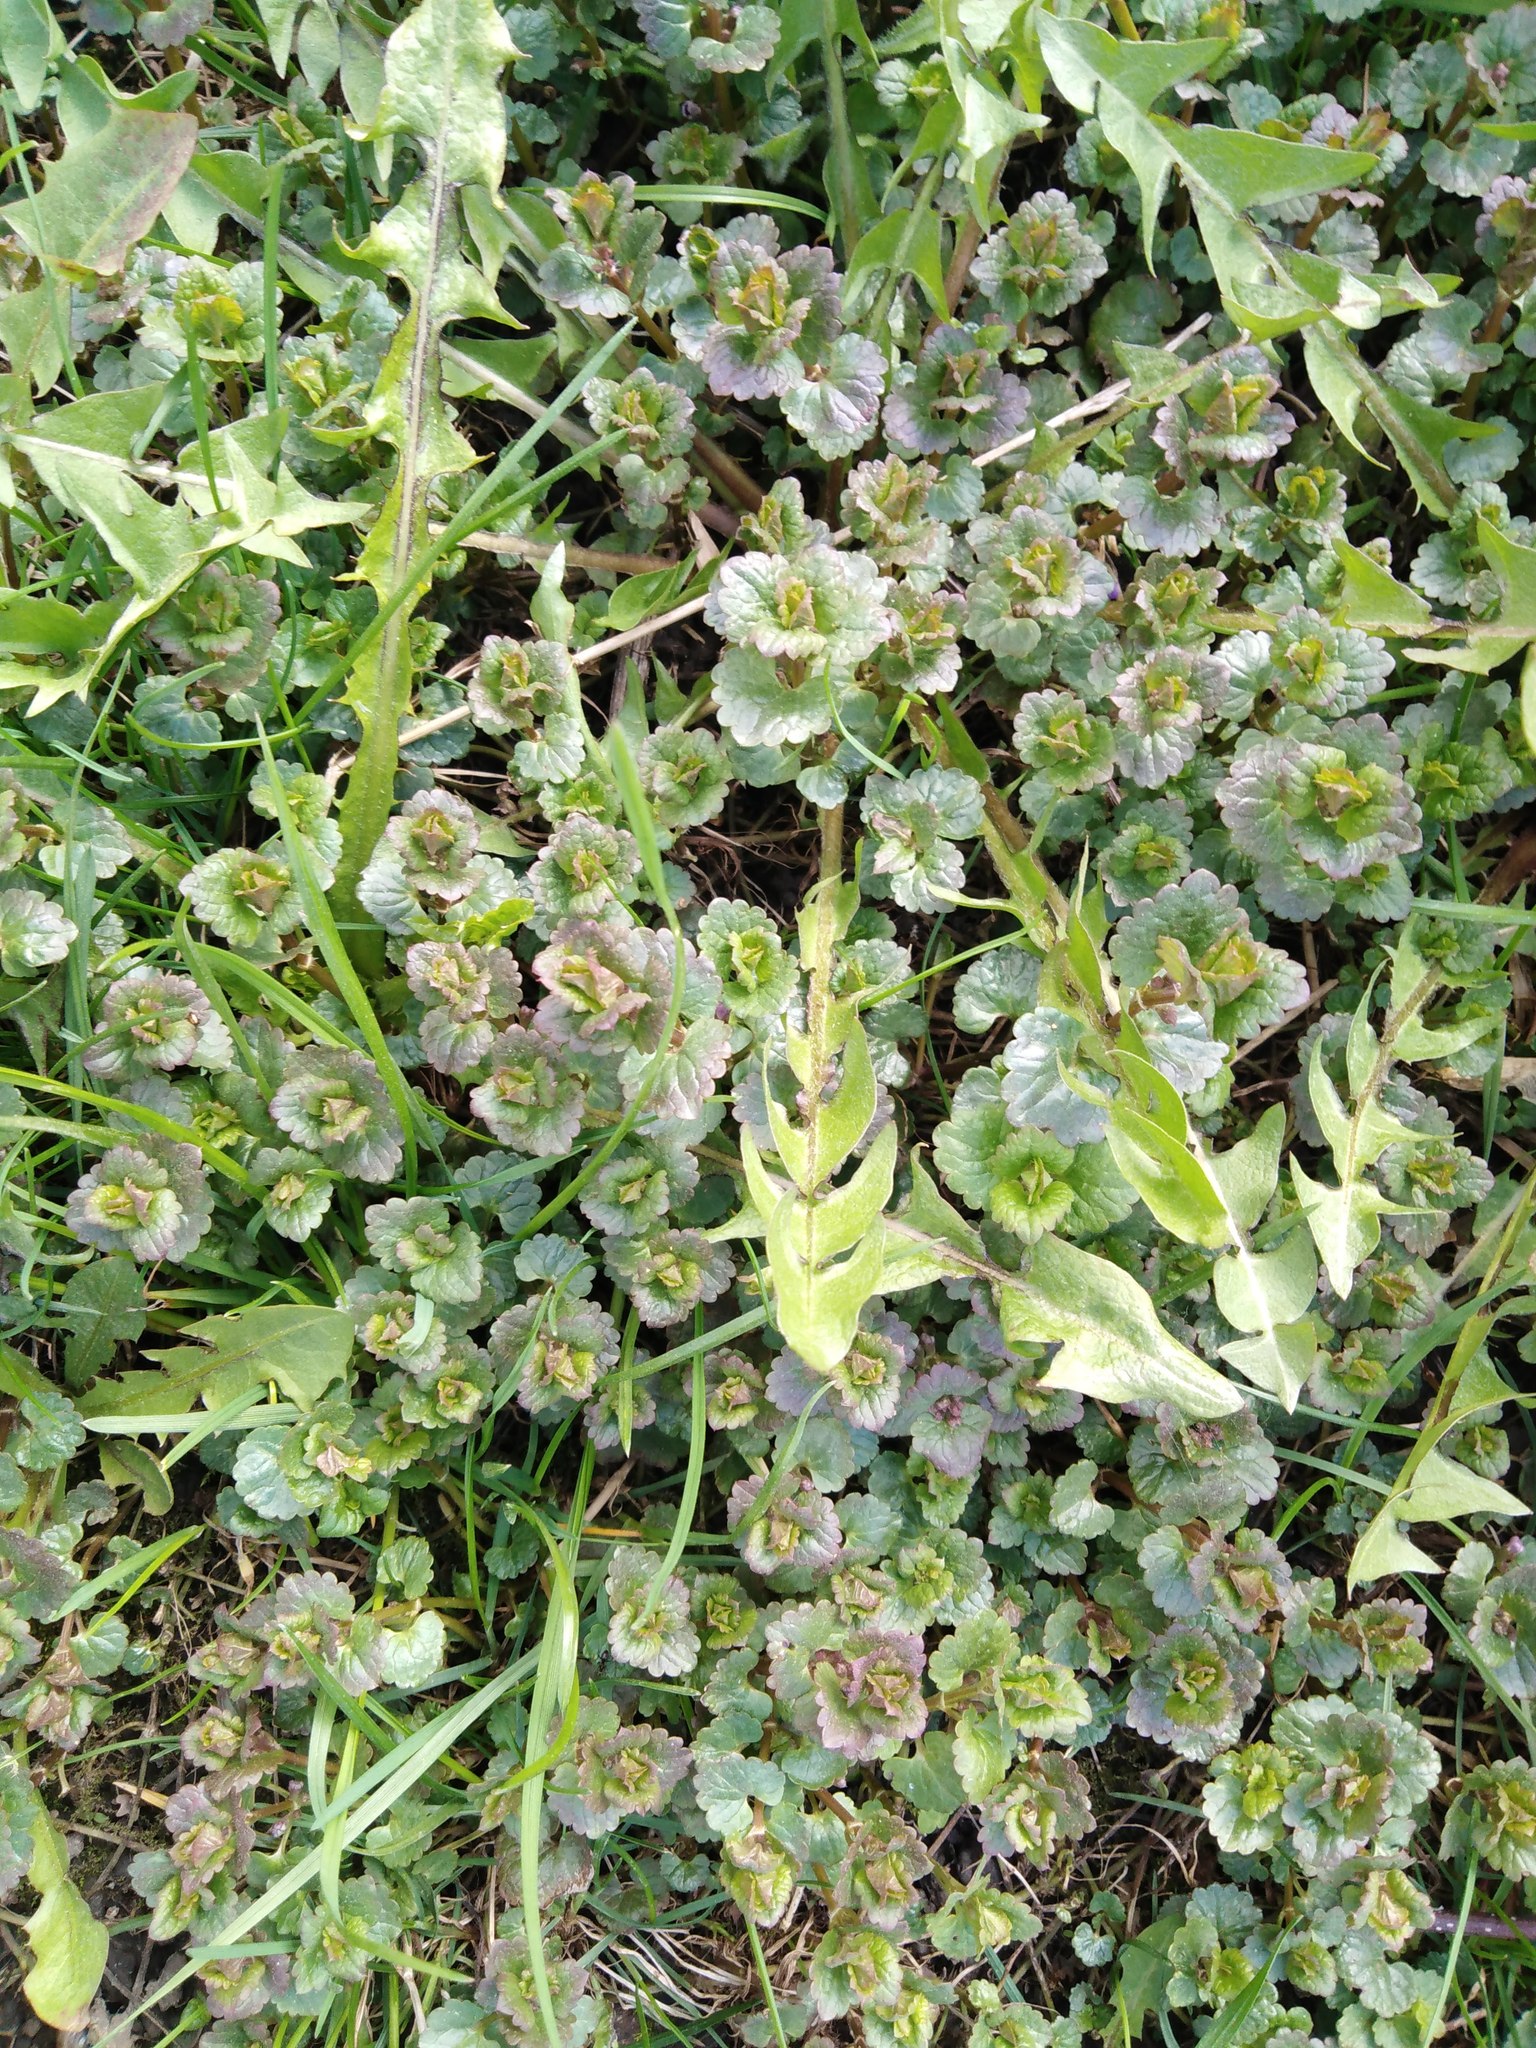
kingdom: Plantae
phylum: Tracheophyta
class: Magnoliopsida
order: Lamiales
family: Lamiaceae
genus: Glechoma
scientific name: Glechoma hederacea
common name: Ground ivy
